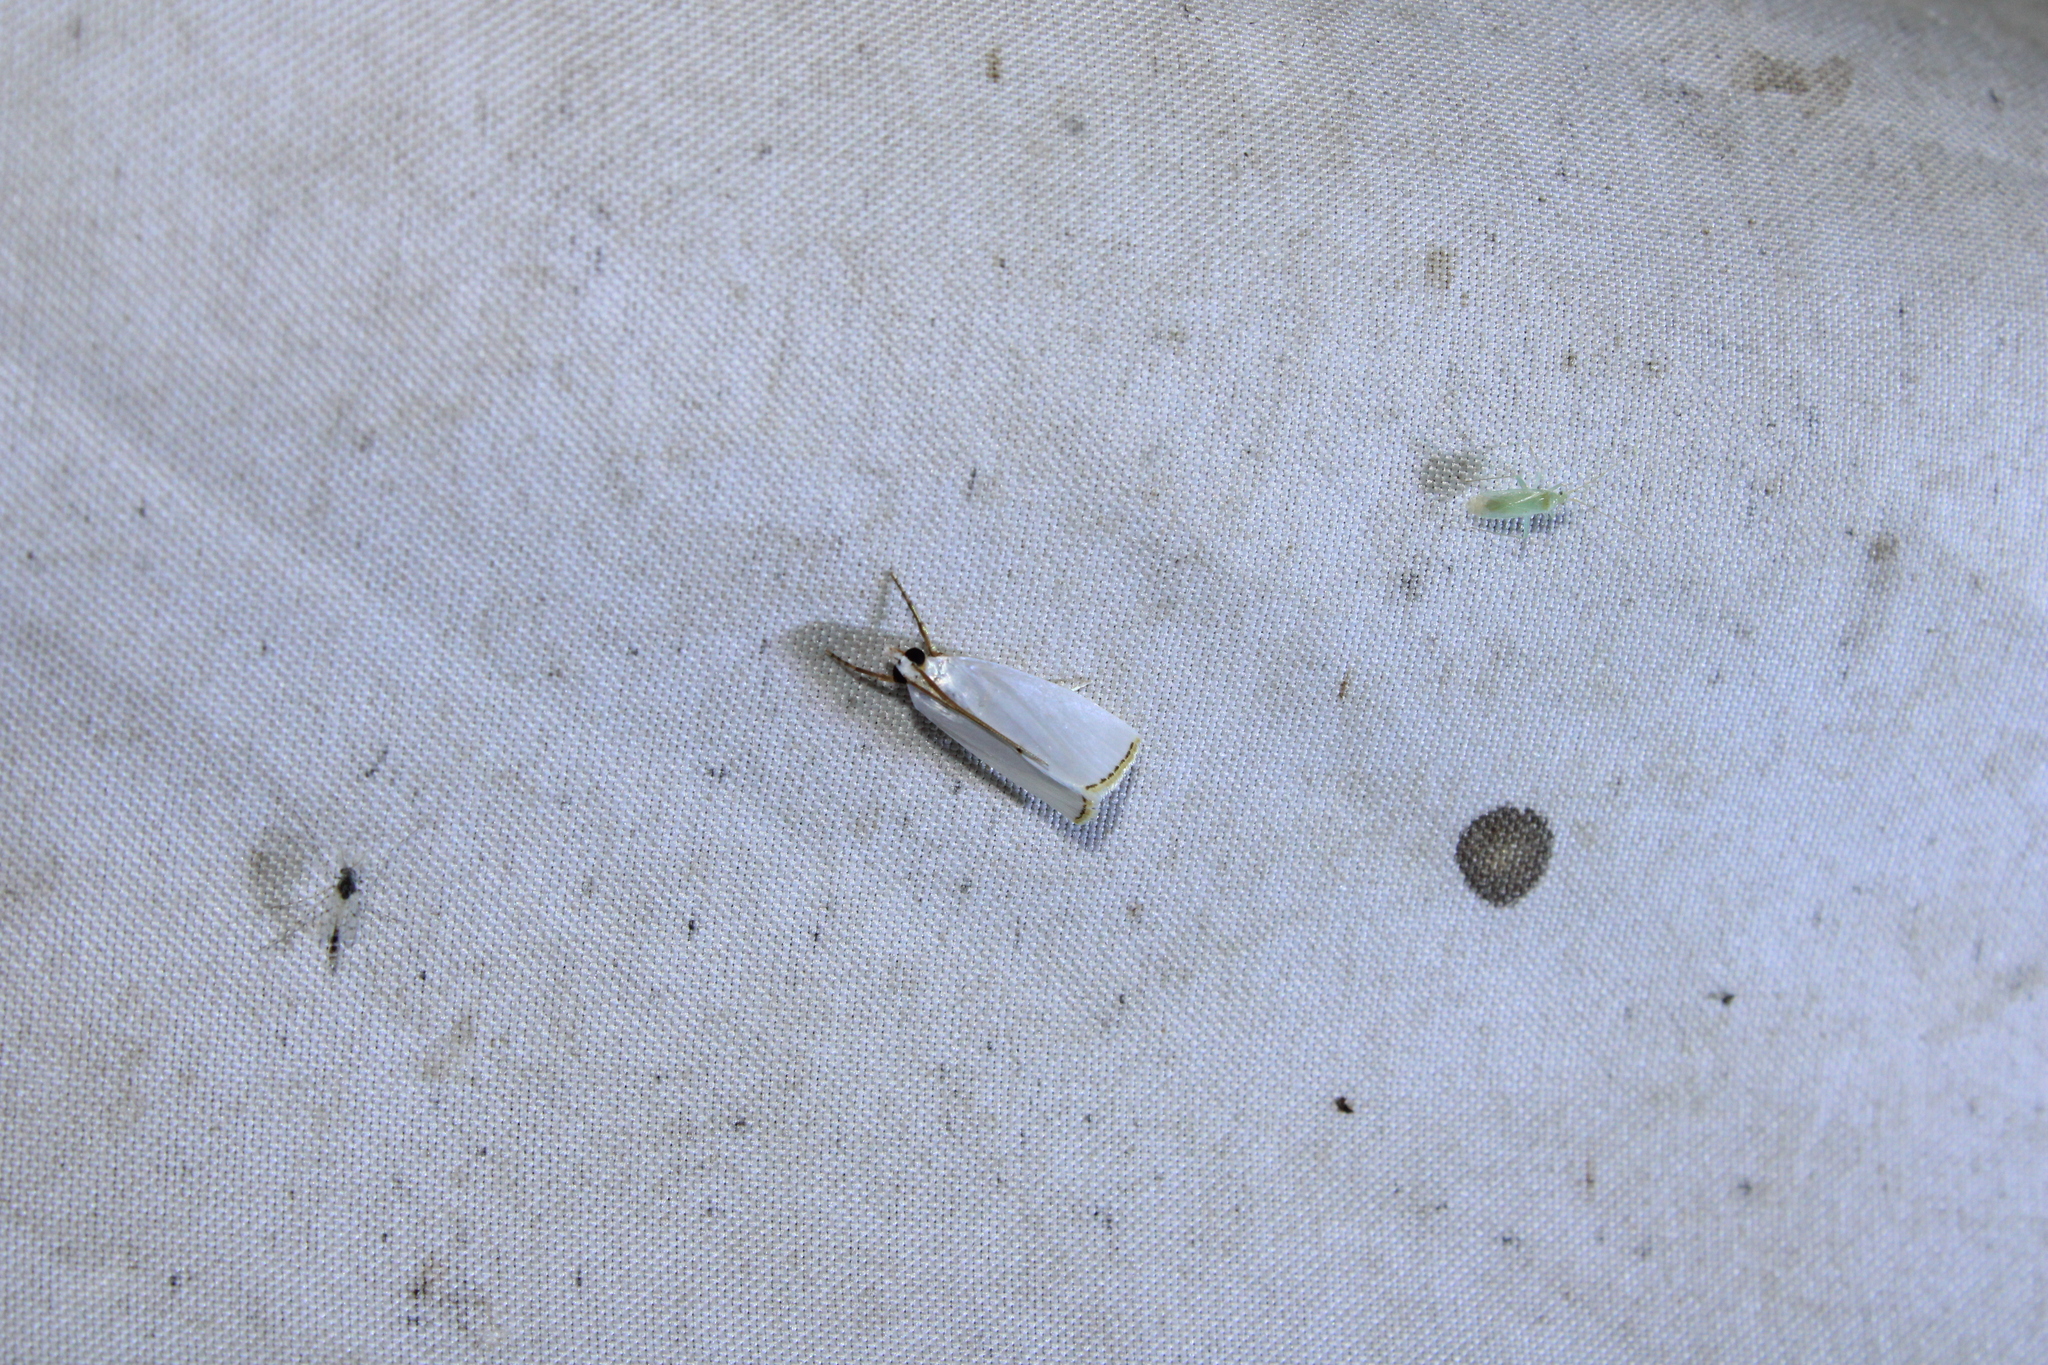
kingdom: Animalia
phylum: Arthropoda
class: Insecta
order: Lepidoptera
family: Crambidae
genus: Argyria
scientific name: Argyria nivalis
